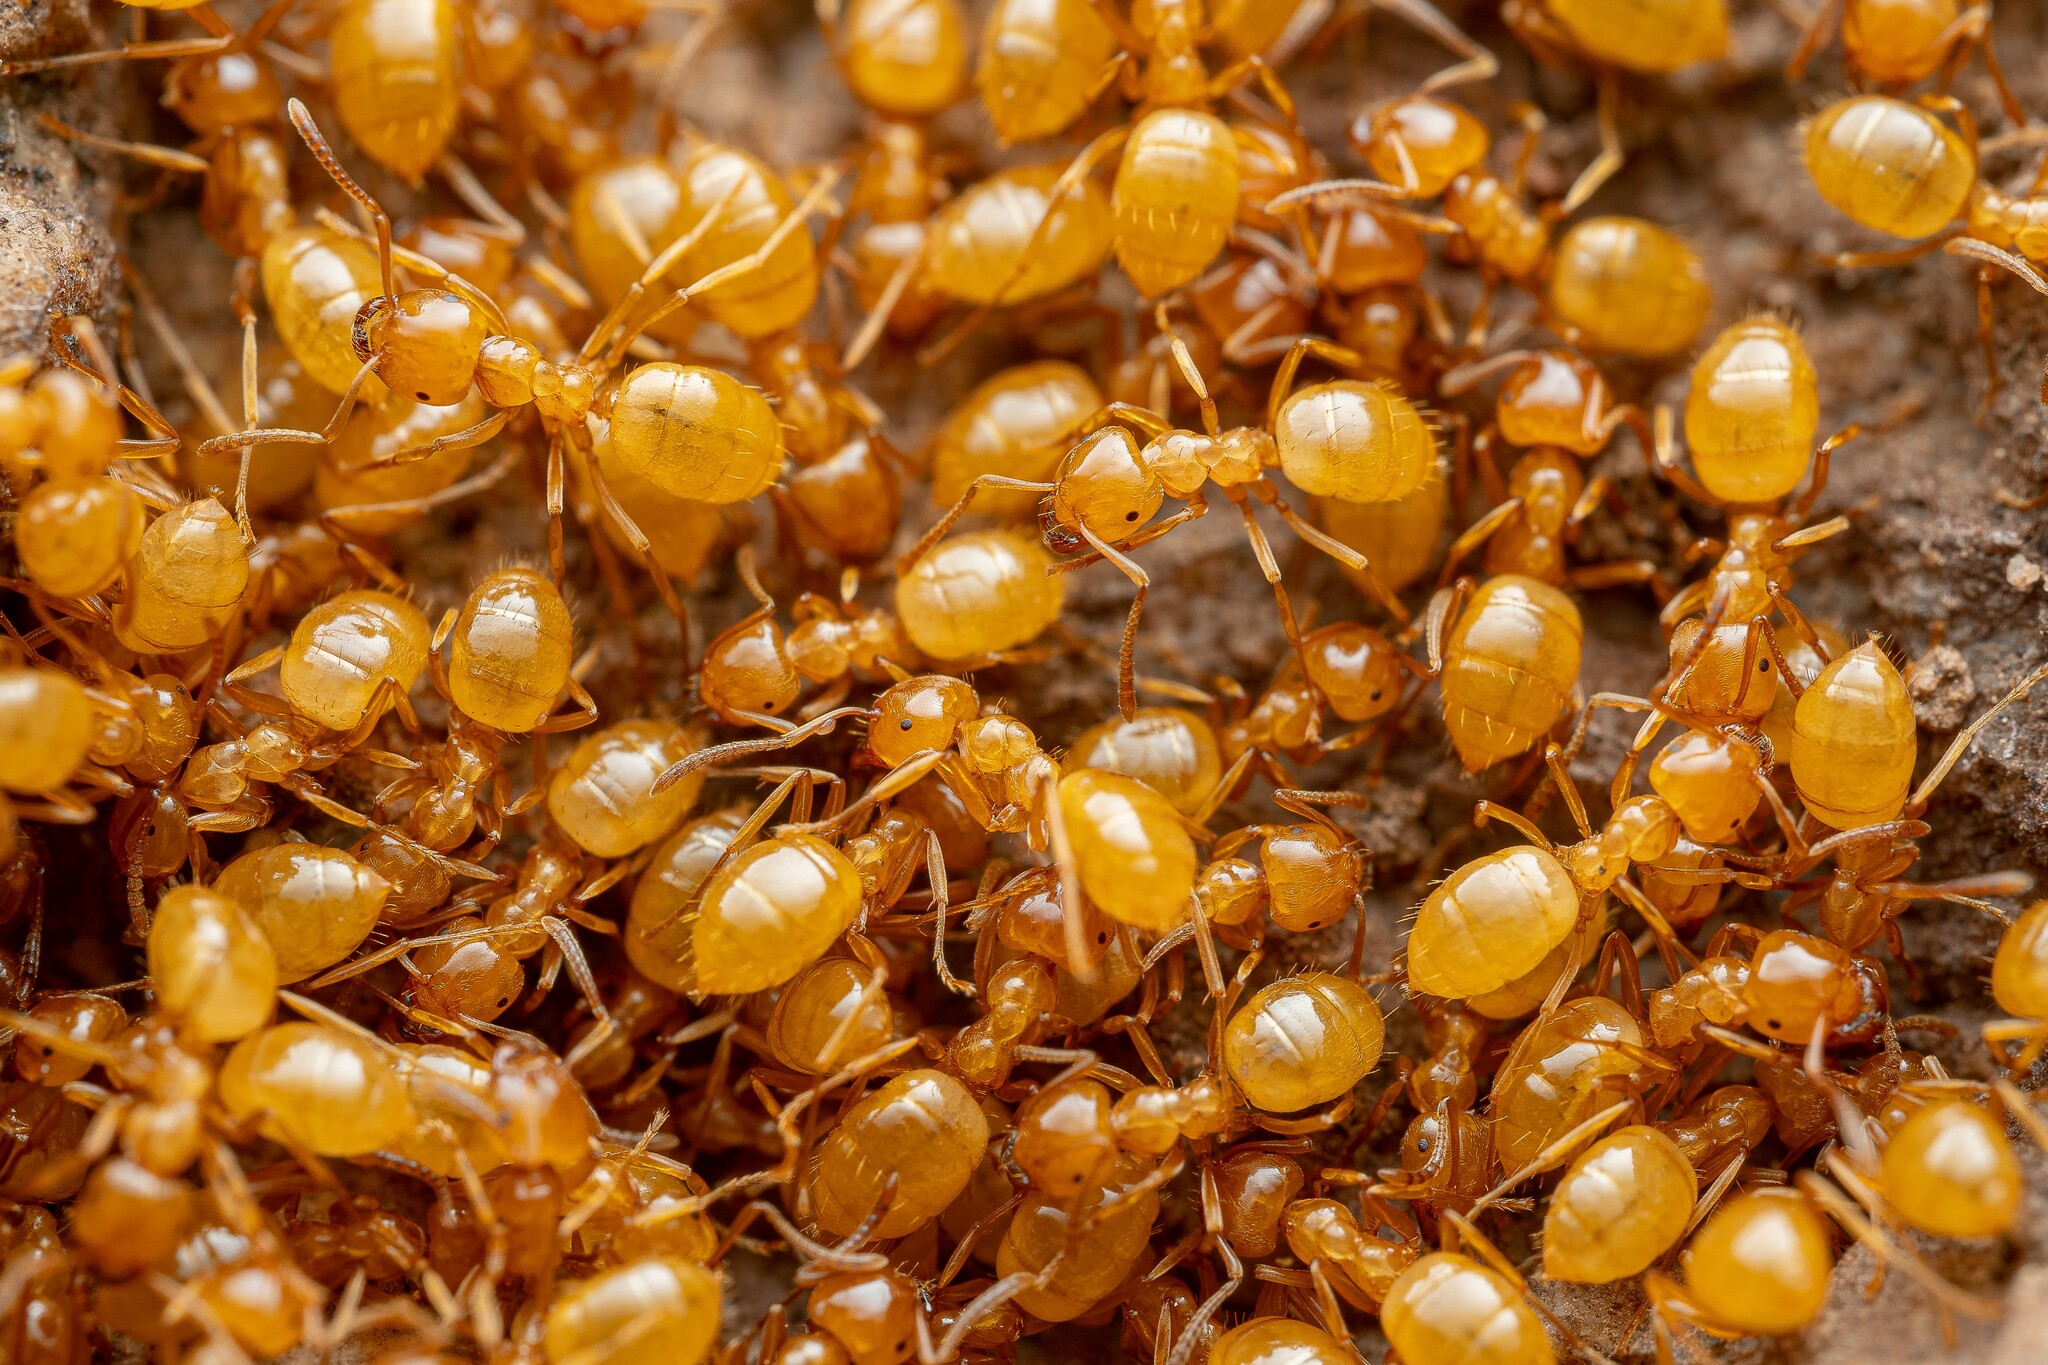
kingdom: Animalia
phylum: Arthropoda
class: Insecta
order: Hymenoptera
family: Formicidae
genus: Lasius
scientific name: Lasius arizonicus
